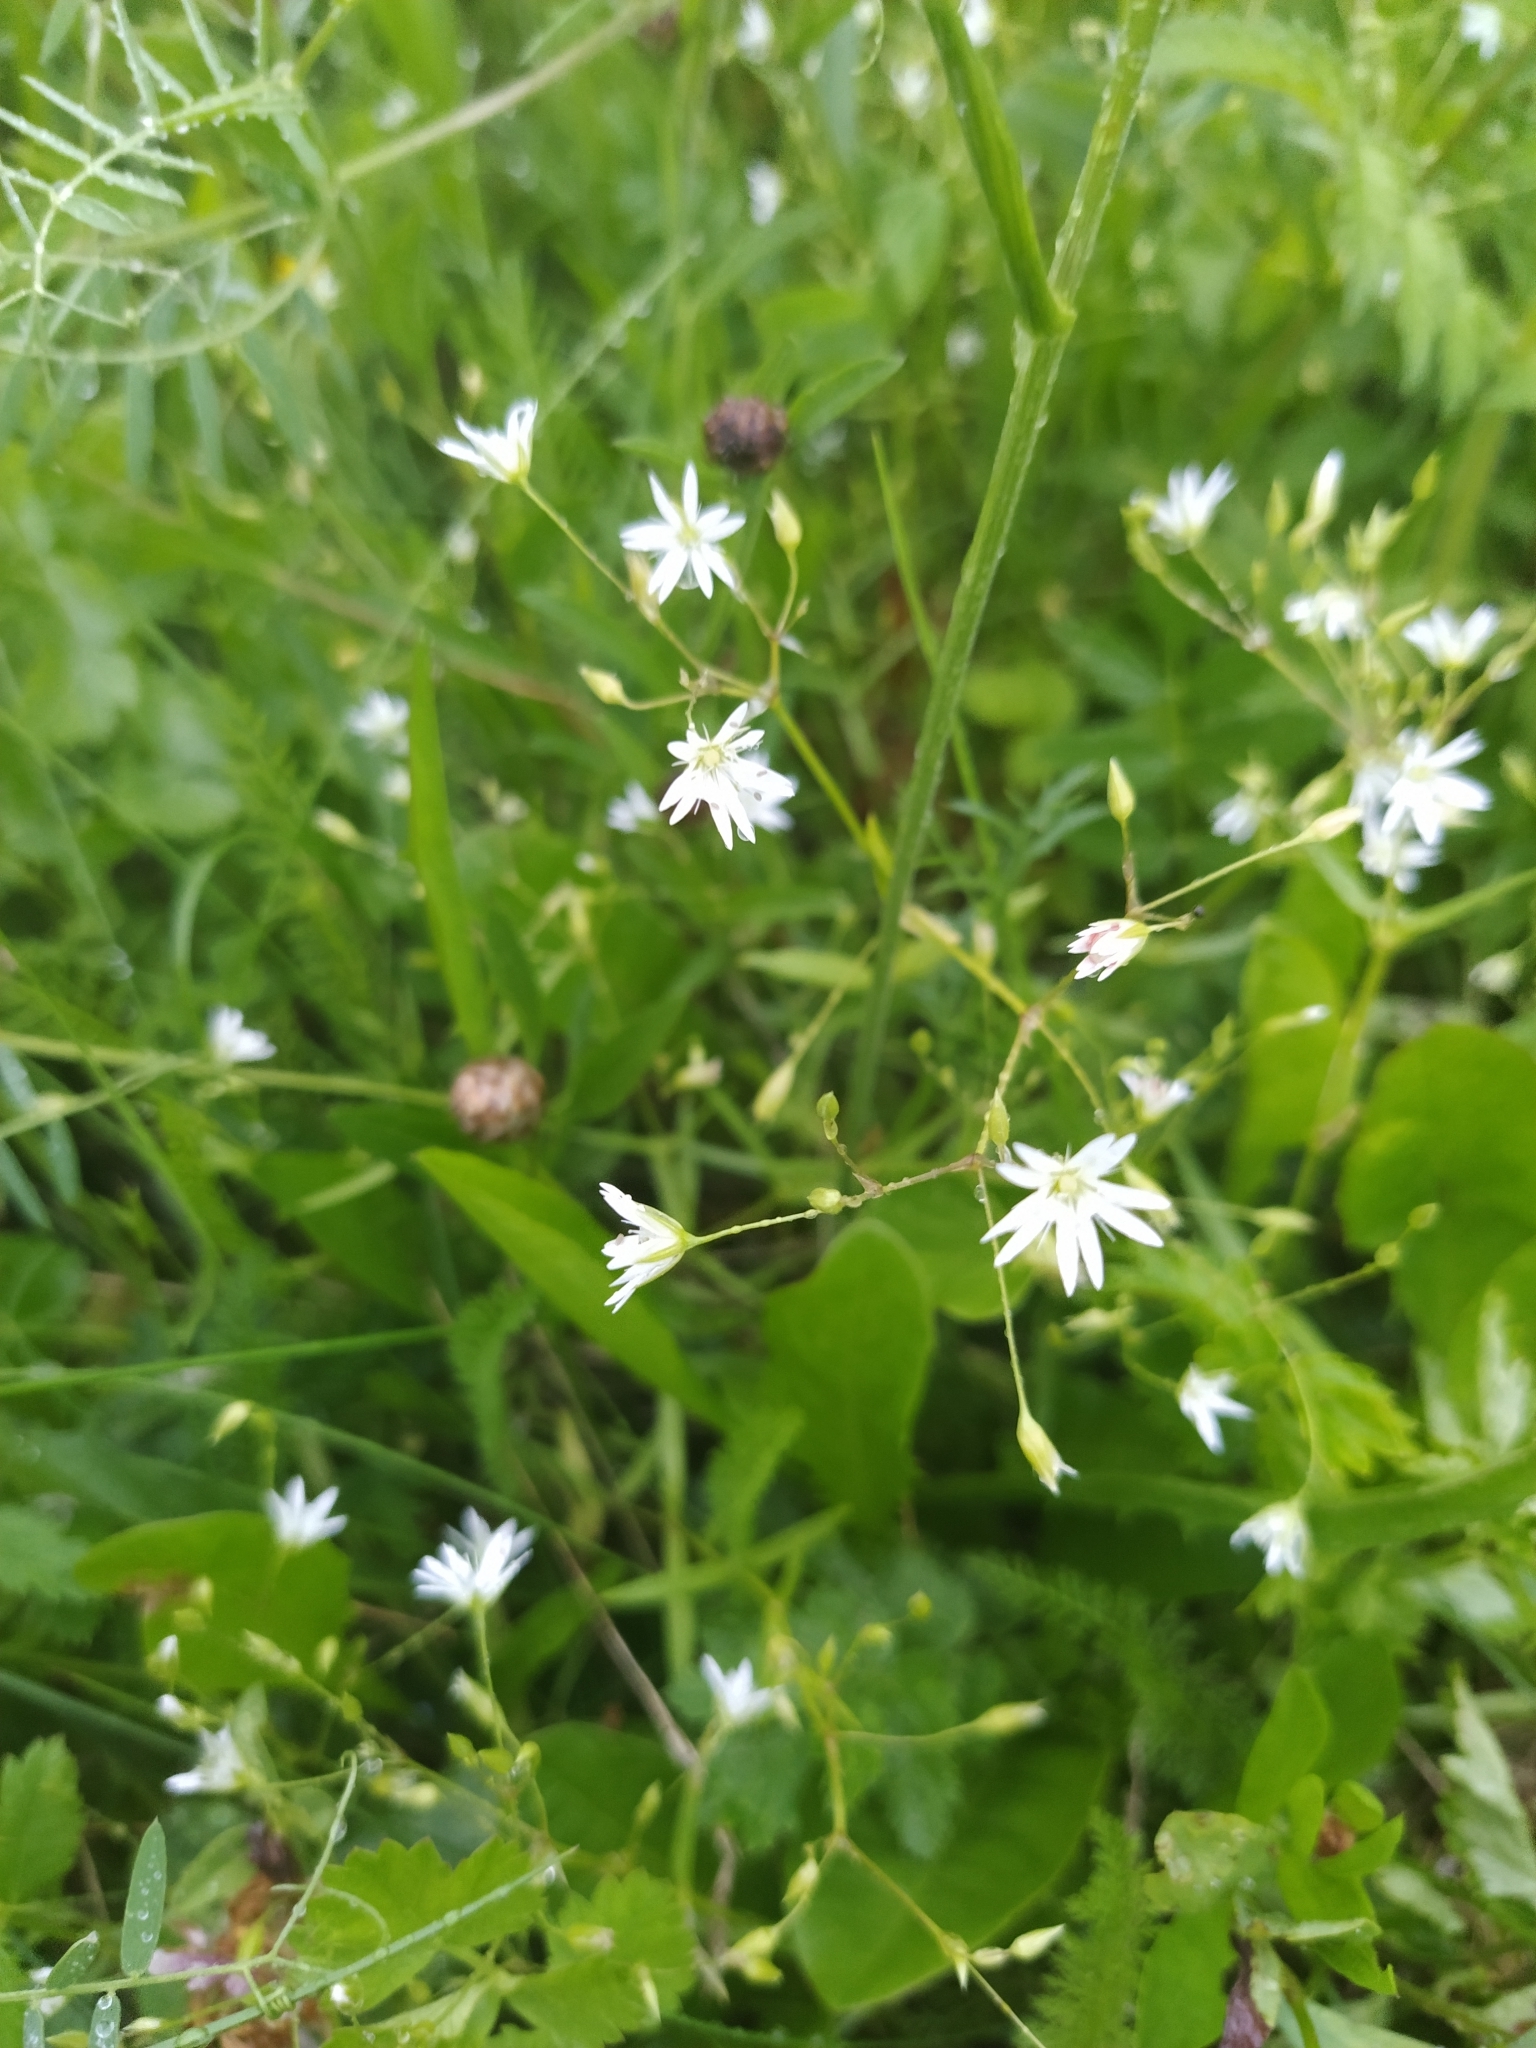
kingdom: Plantae
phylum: Tracheophyta
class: Magnoliopsida
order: Caryophyllales
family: Caryophyllaceae
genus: Stellaria
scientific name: Stellaria graminea
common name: Grass-like starwort
